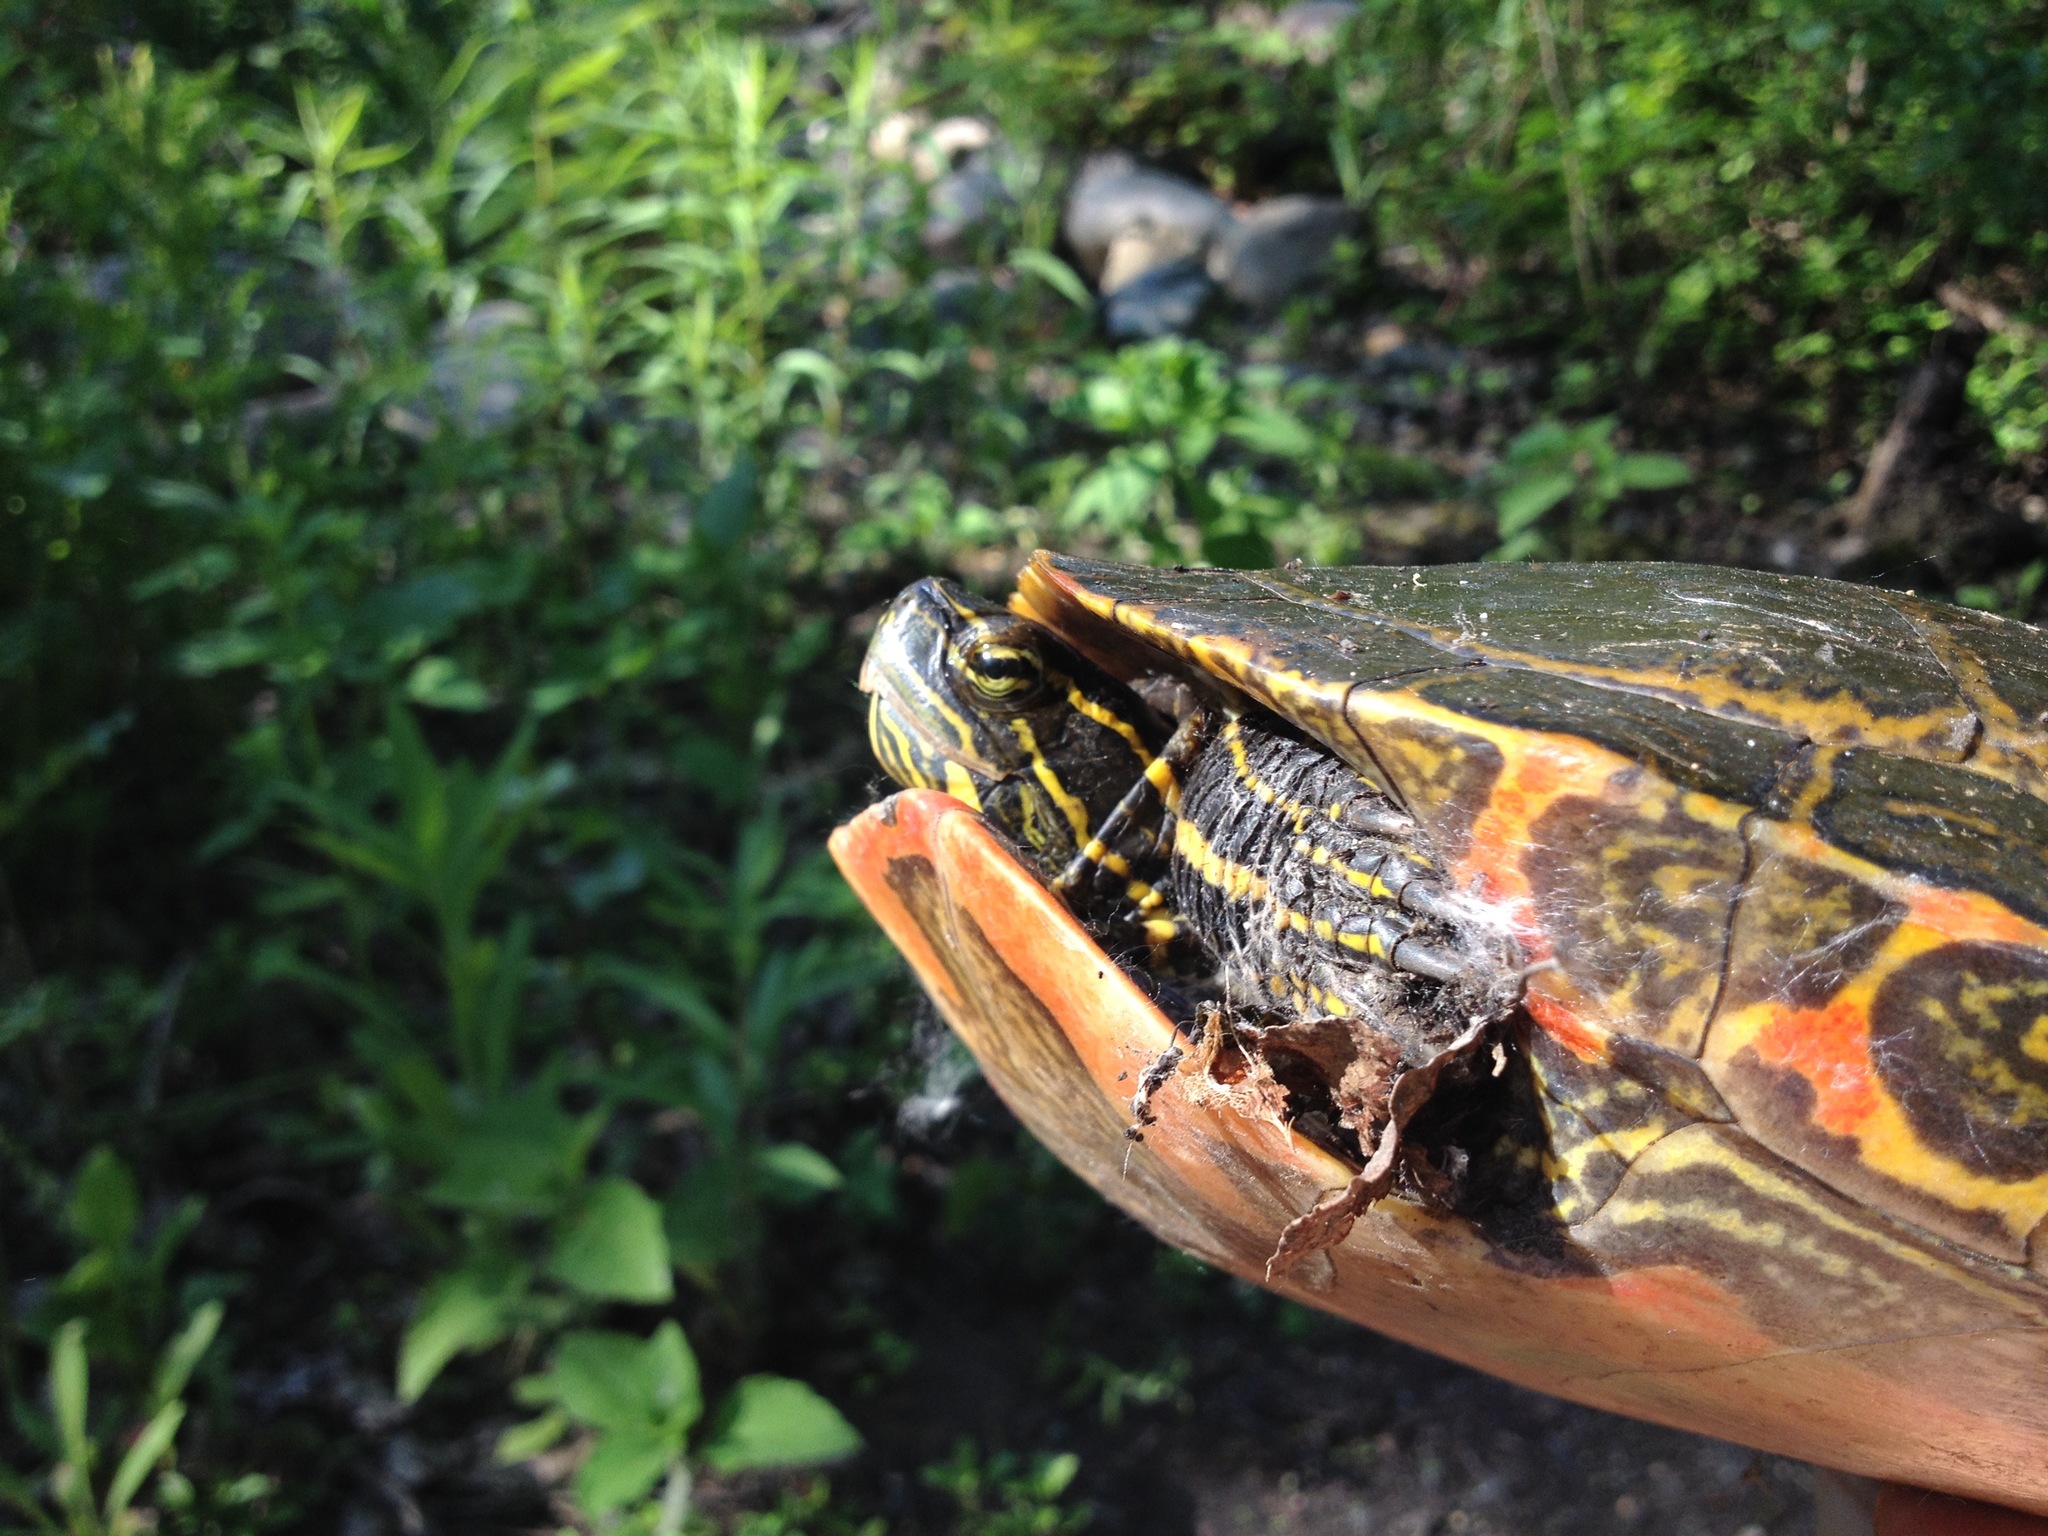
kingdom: Animalia
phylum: Chordata
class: Testudines
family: Emydidae
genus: Chrysemys
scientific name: Chrysemys picta
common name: Painted turtle
